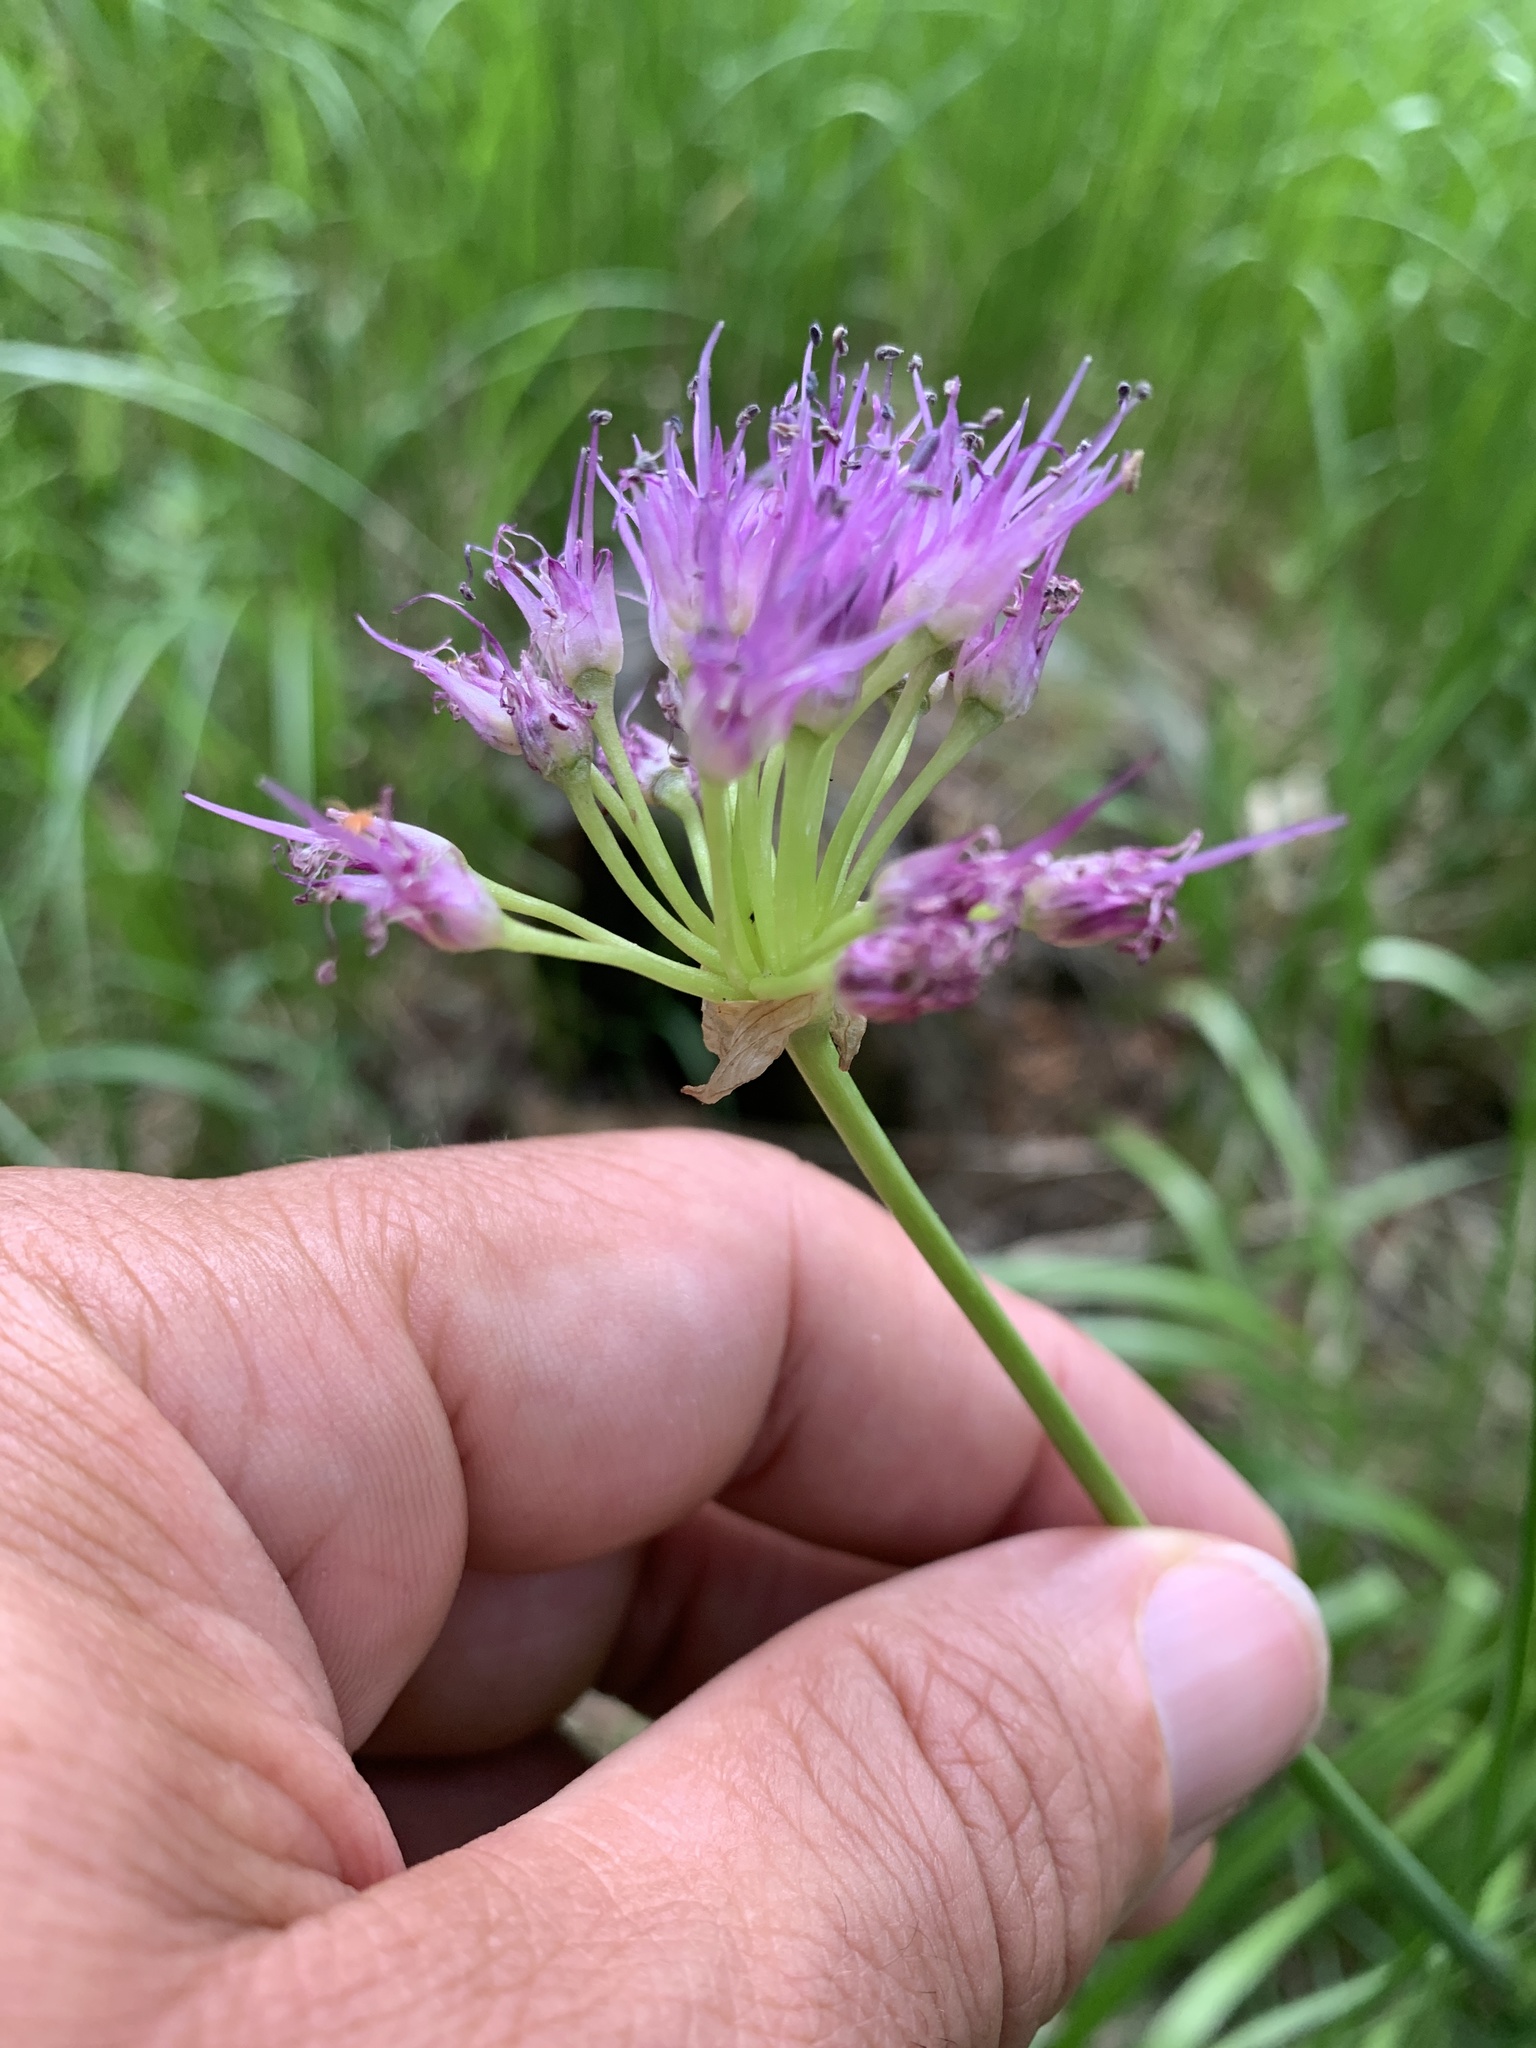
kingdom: Plantae
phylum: Tracheophyta
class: Liliopsida
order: Asparagales
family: Amaryllidaceae
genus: Allium
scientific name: Allium validum
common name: Pacific mountain onion
